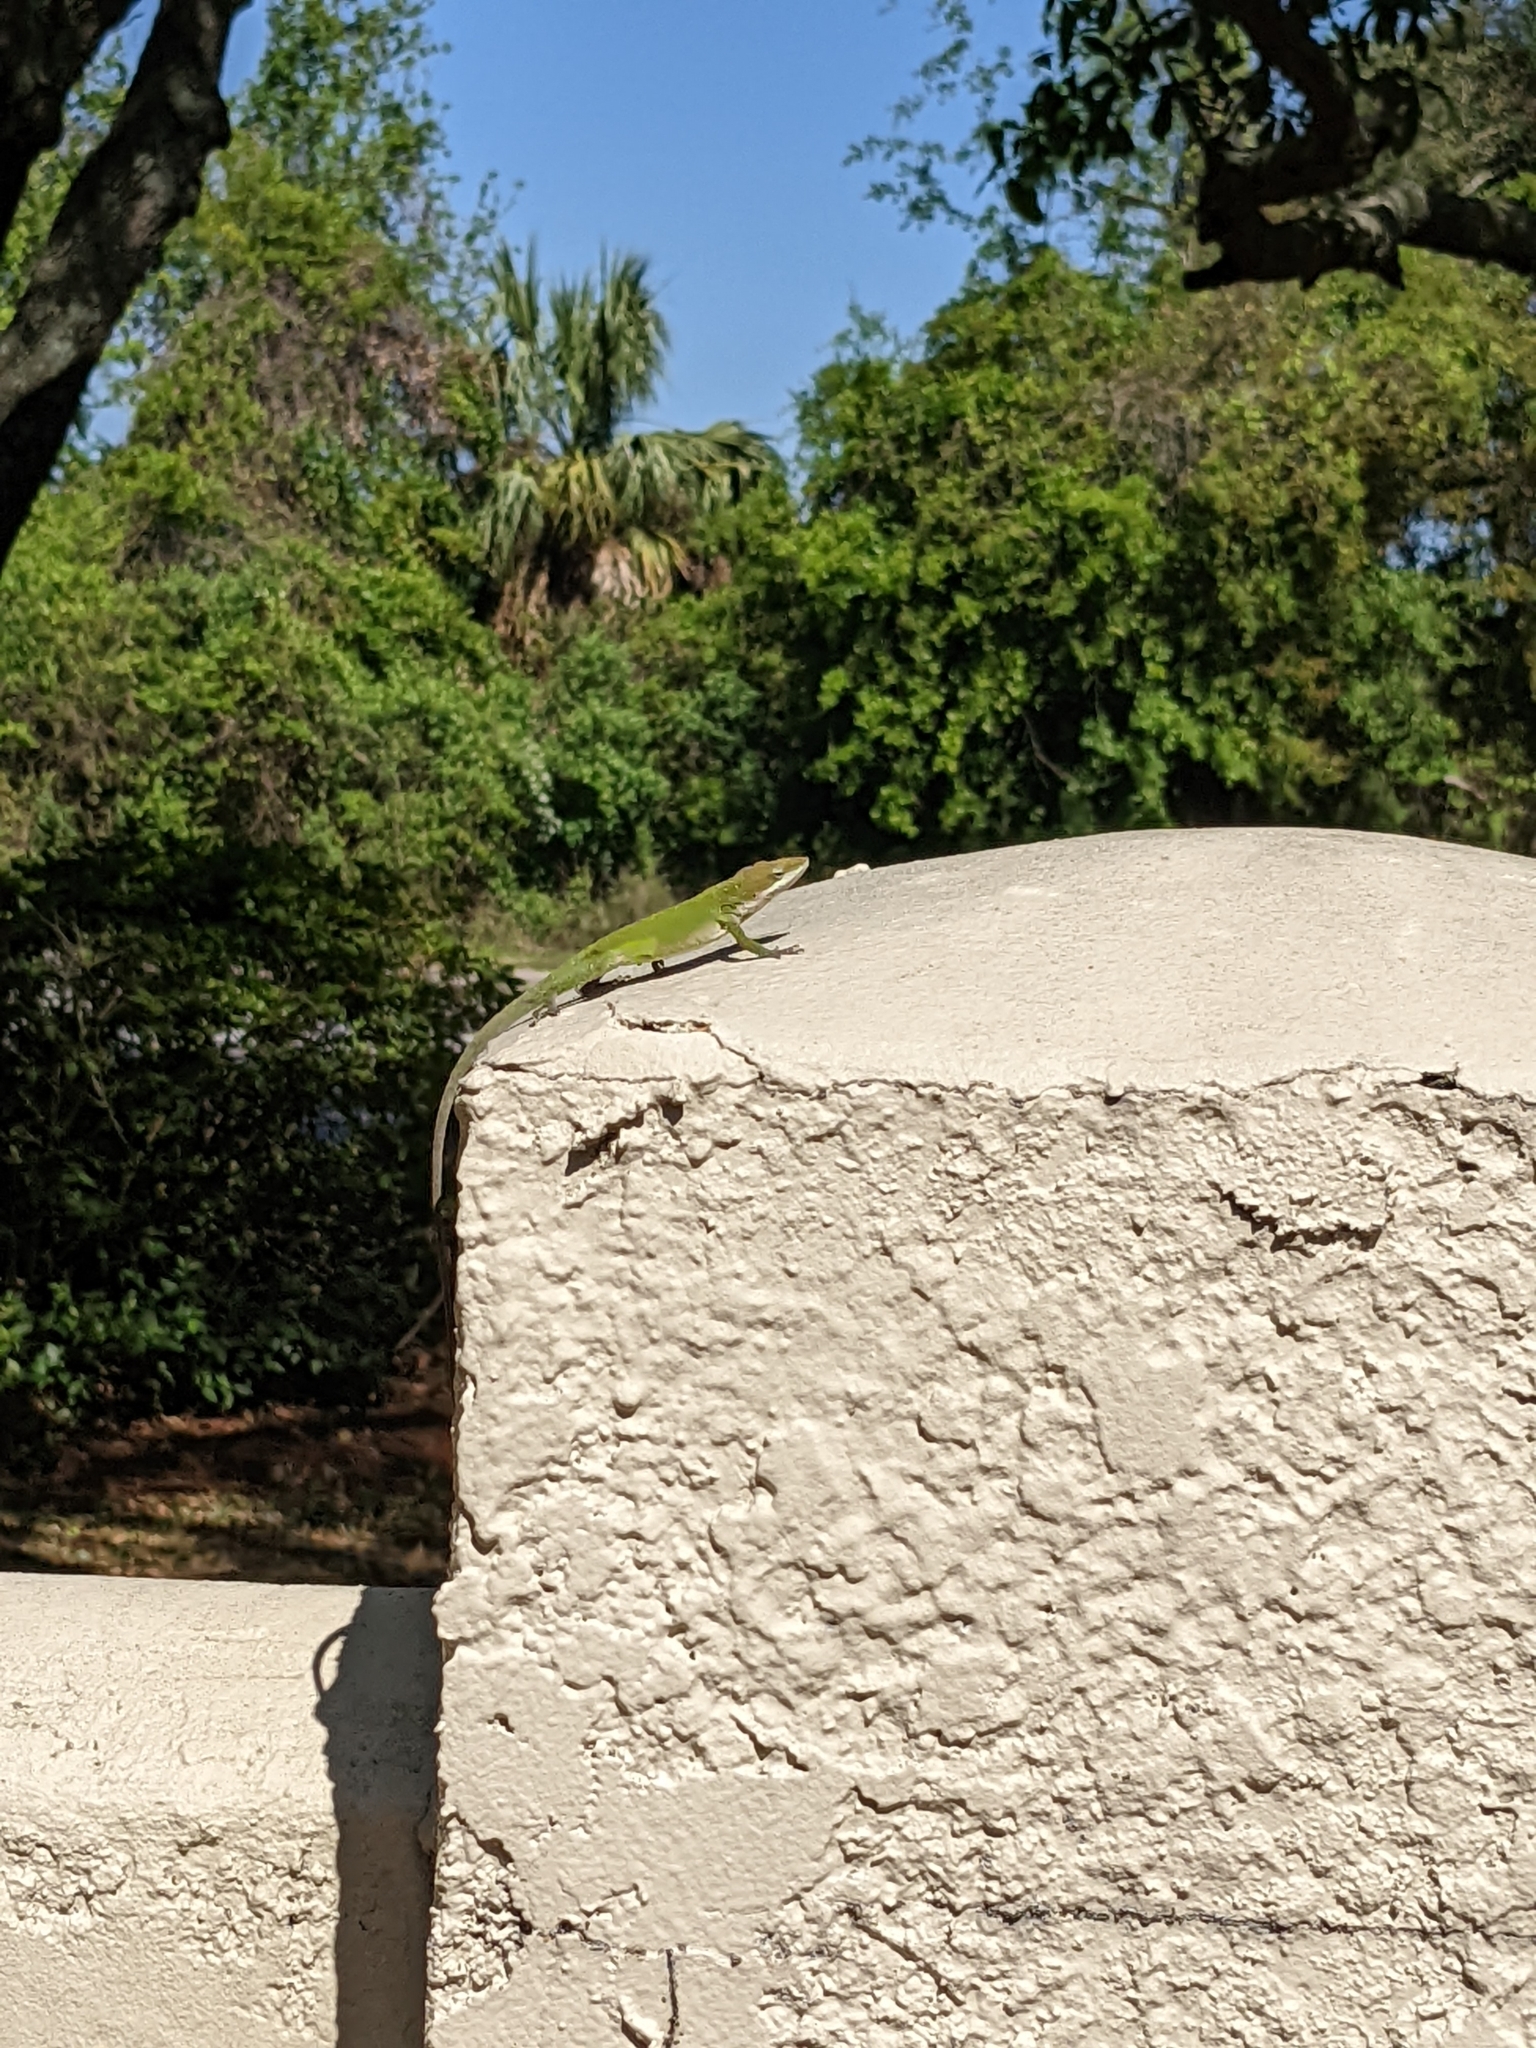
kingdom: Animalia
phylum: Chordata
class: Squamata
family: Dactyloidae
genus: Anolis
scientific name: Anolis carolinensis
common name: Green anole
